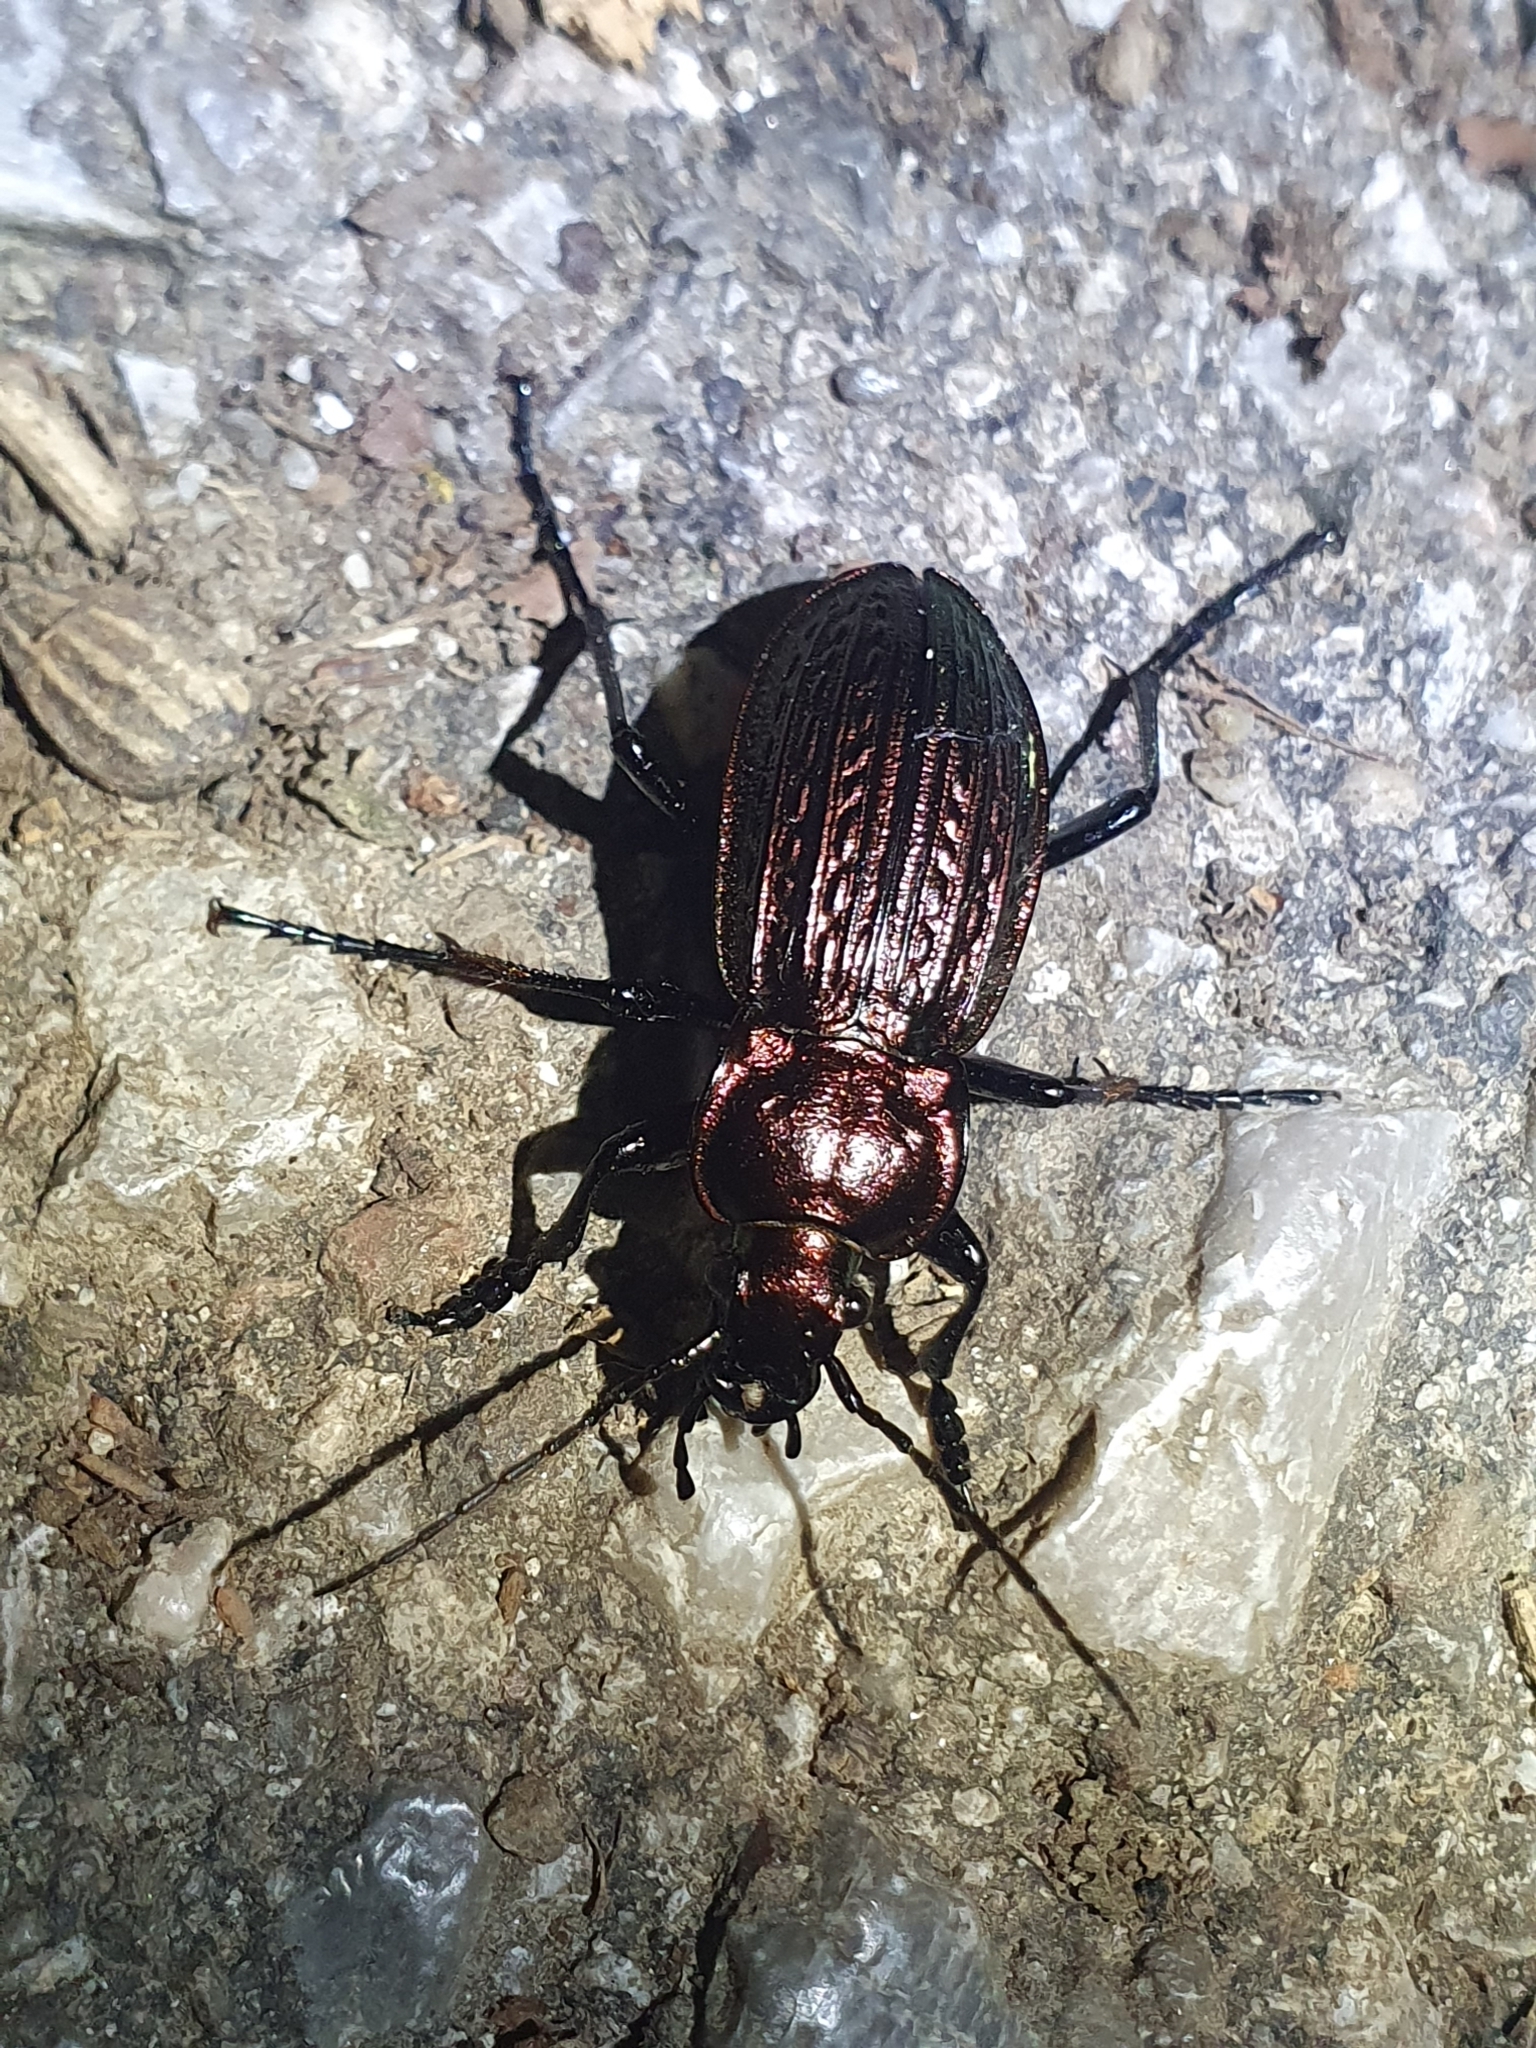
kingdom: Animalia
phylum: Arthropoda
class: Insecta
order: Coleoptera
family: Carabidae
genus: Carabus
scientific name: Carabus ulrichii
